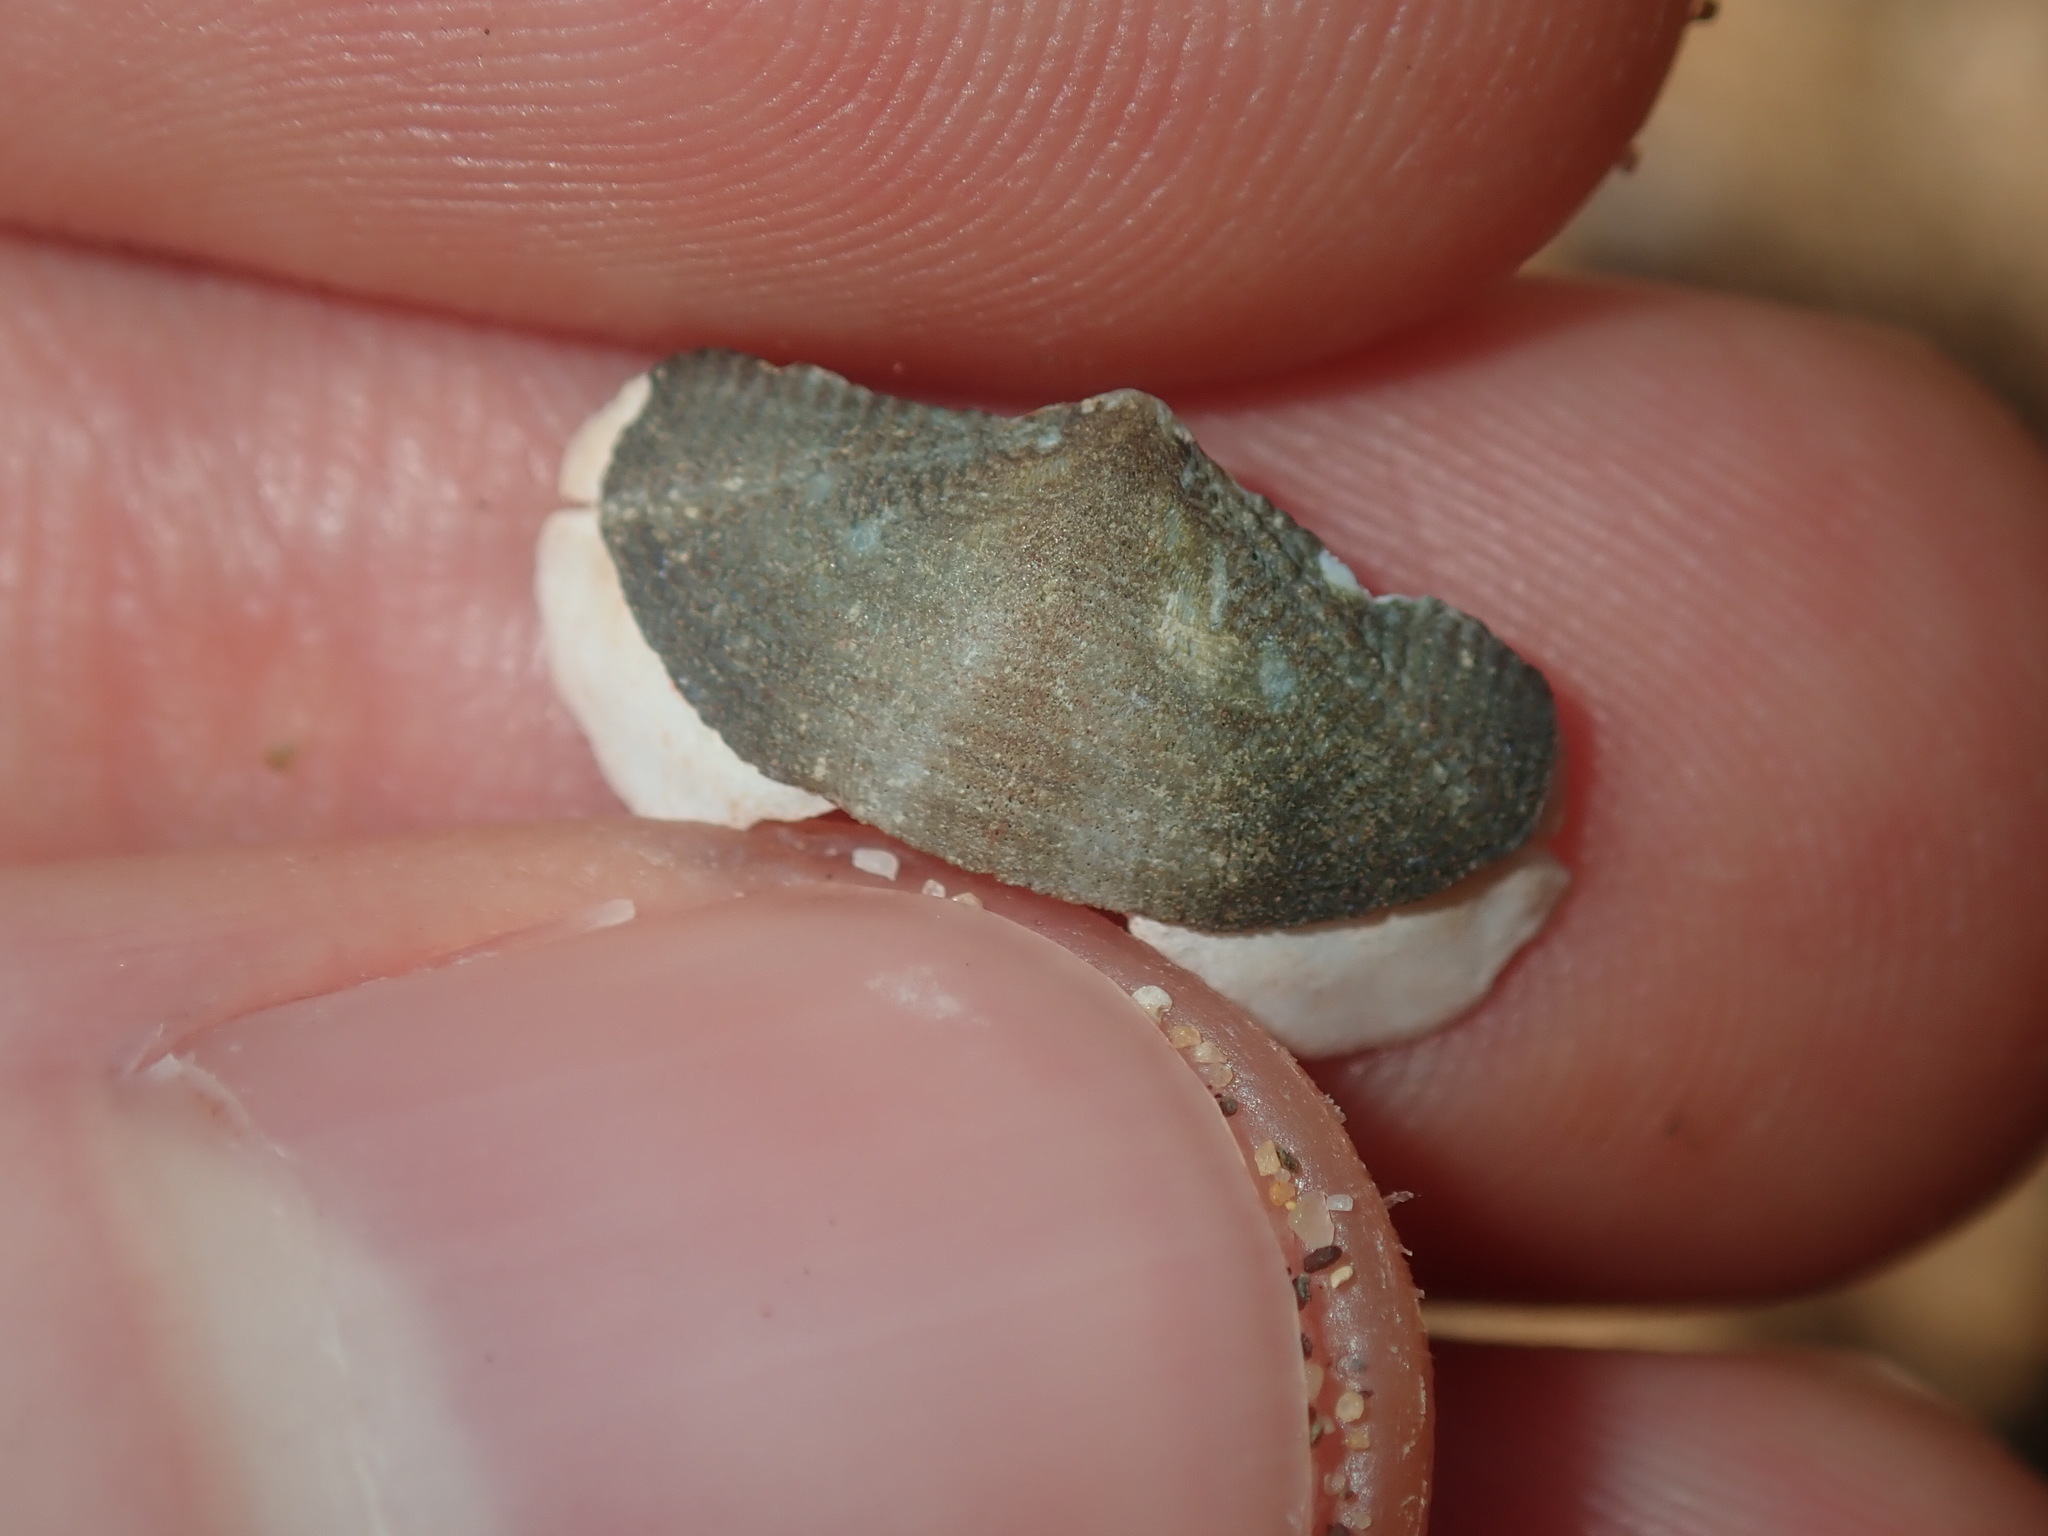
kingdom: Animalia
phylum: Mollusca
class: Polyplacophora
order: Chitonida
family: Mopaliidae
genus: Plaxiphora
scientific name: Plaxiphora albida
